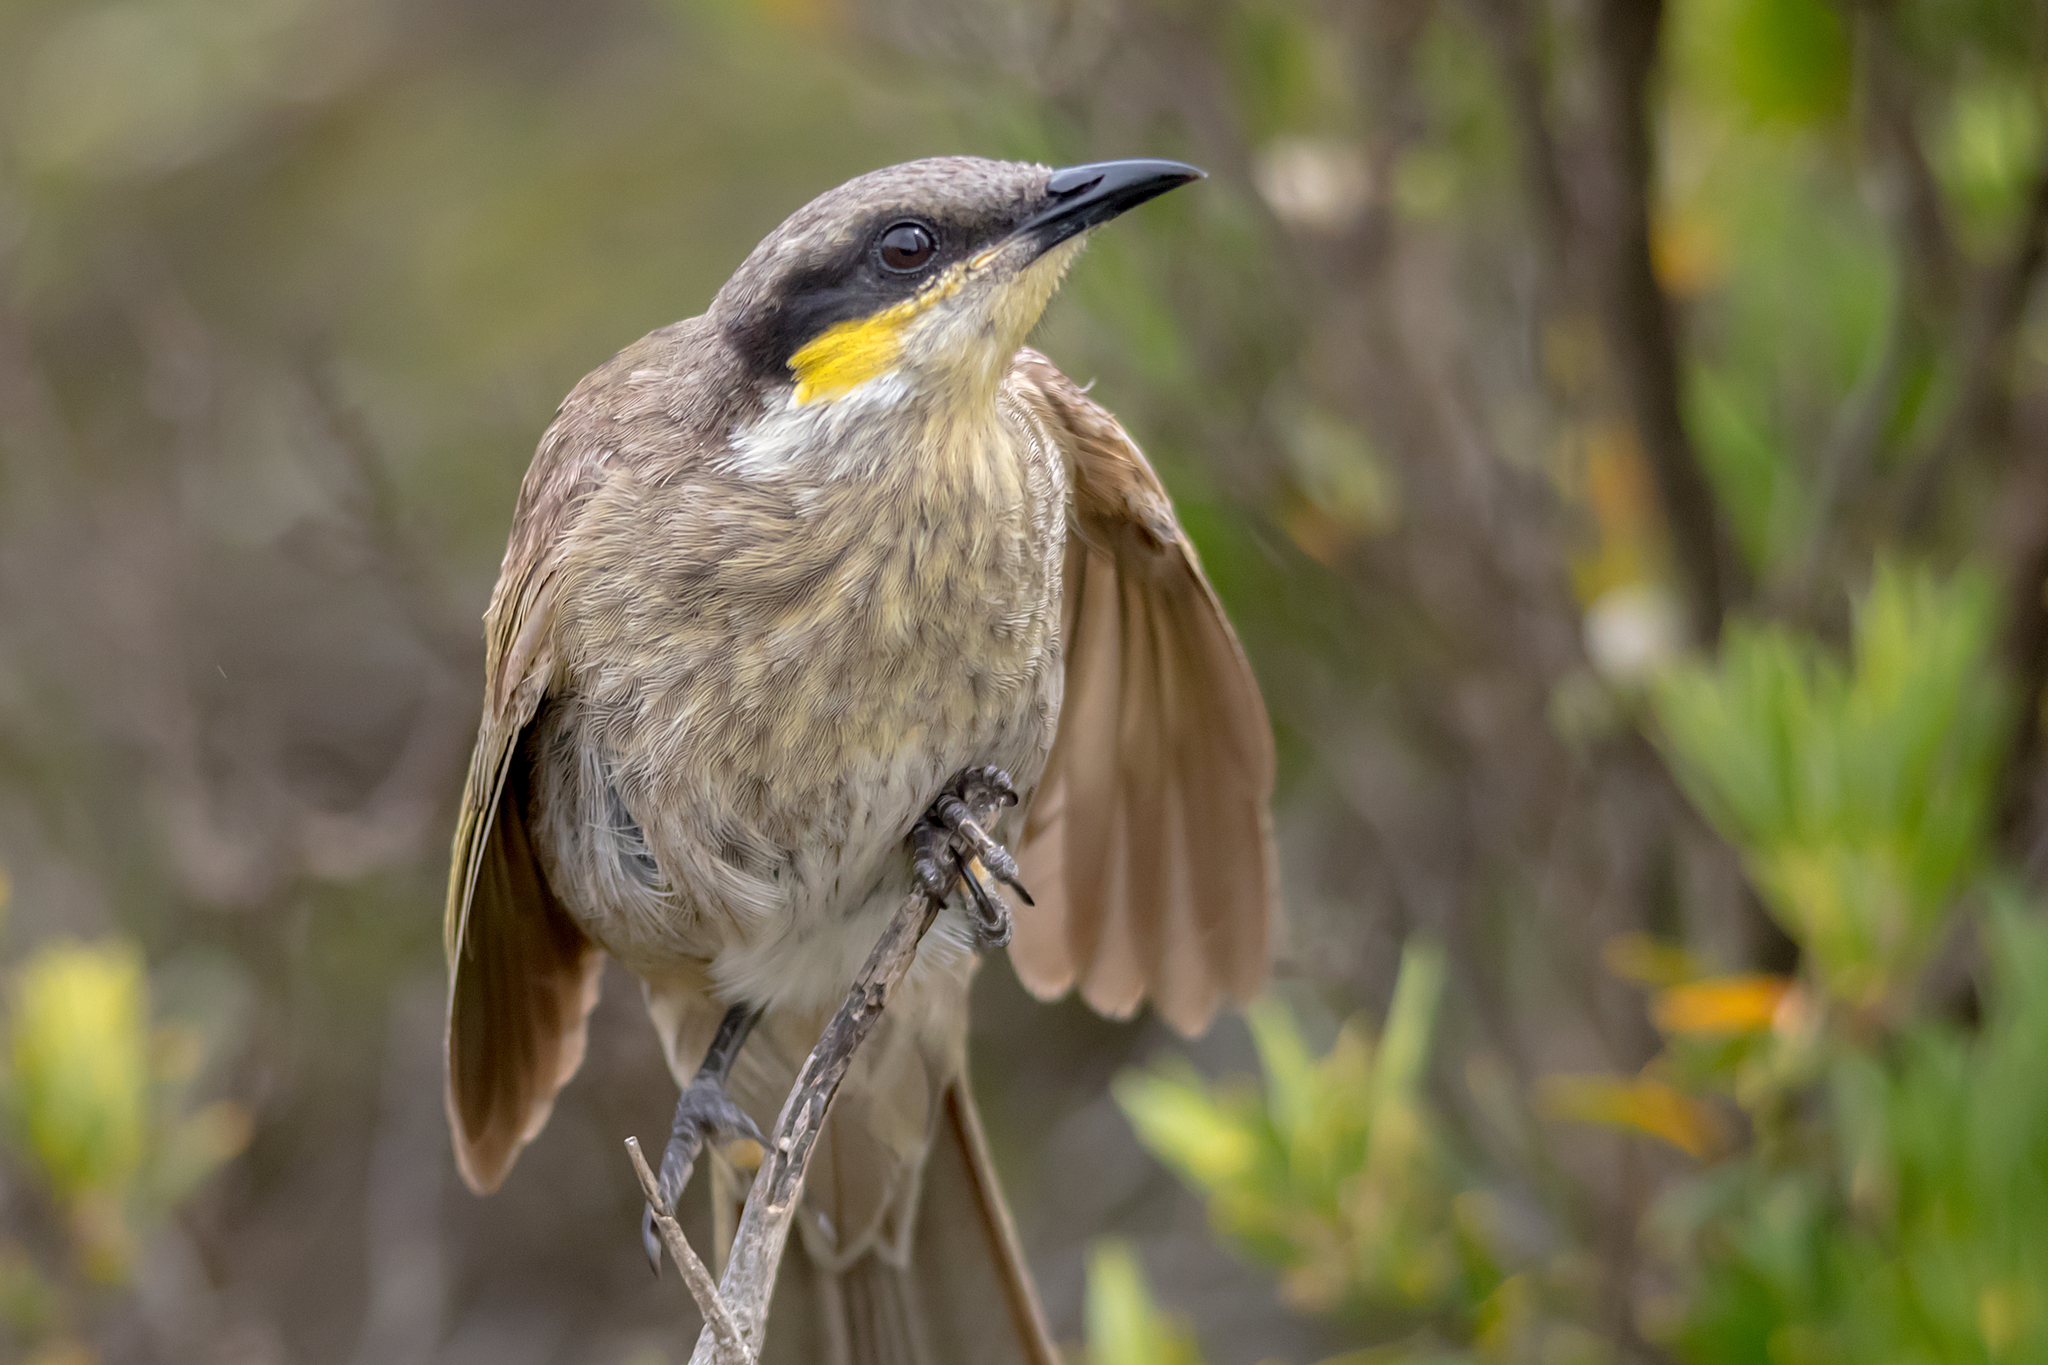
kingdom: Animalia
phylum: Chordata
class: Aves
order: Passeriformes
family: Meliphagidae
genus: Gavicalis
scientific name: Gavicalis virescens
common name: Singing honeyeater
